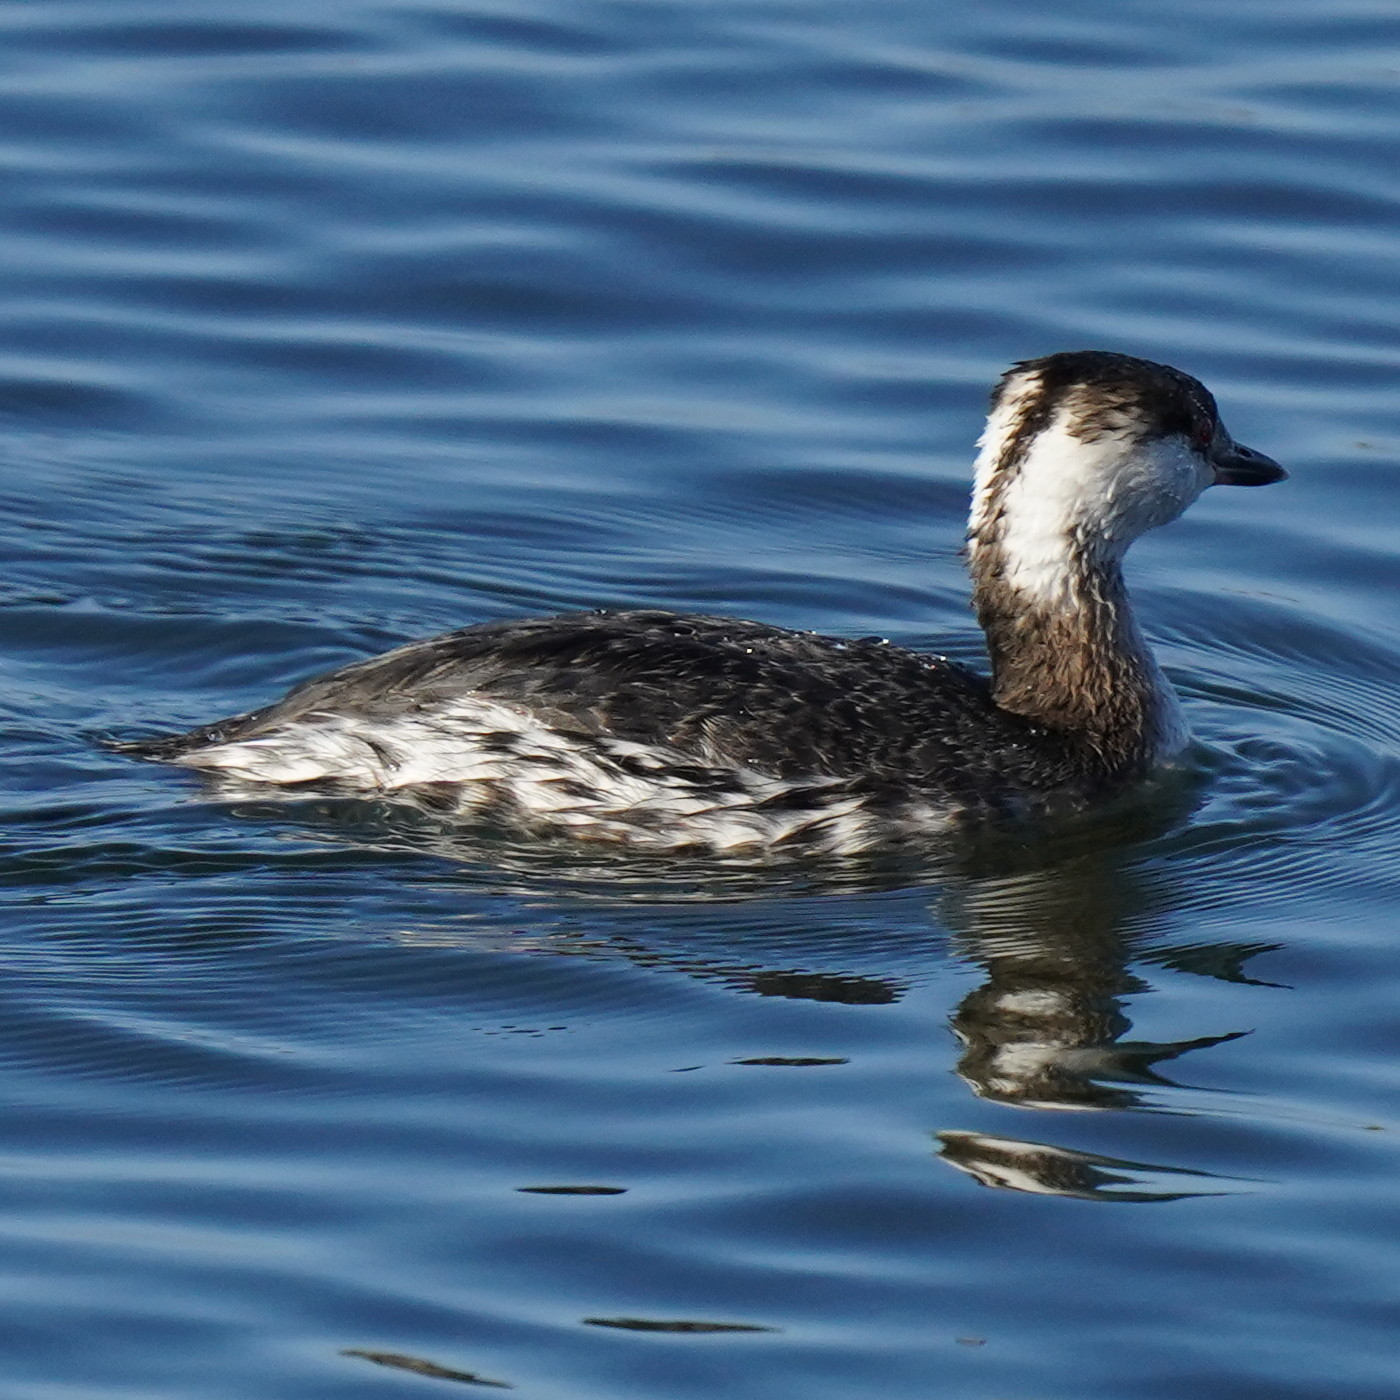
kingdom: Animalia
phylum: Chordata
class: Aves
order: Podicipediformes
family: Podicipedidae
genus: Podiceps
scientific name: Podiceps auritus
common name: Horned grebe
